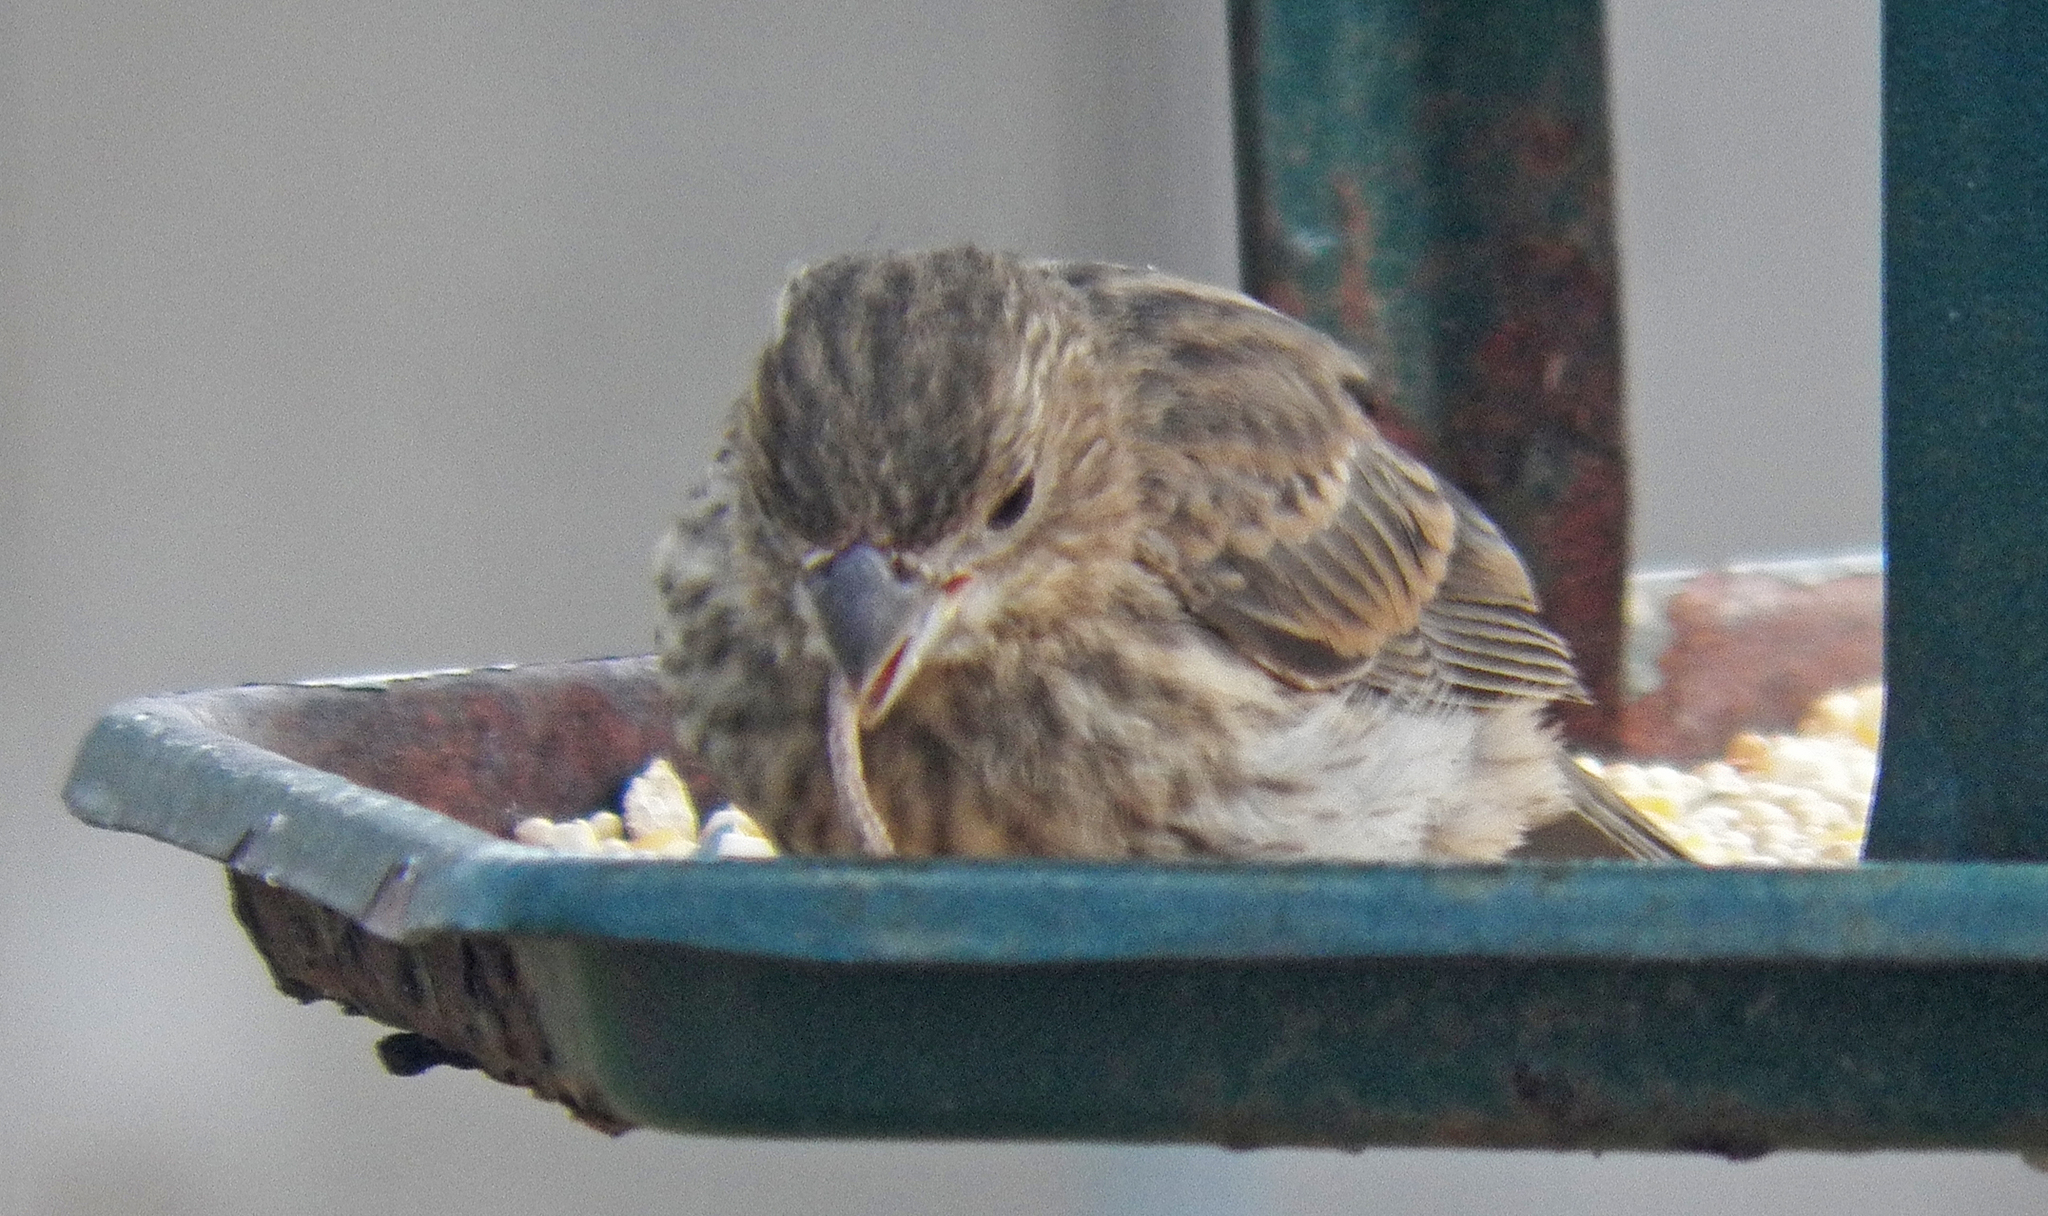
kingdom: Animalia
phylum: Chordata
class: Aves
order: Passeriformes
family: Fringillidae
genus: Haemorhous
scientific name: Haemorhous mexicanus
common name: House finch
